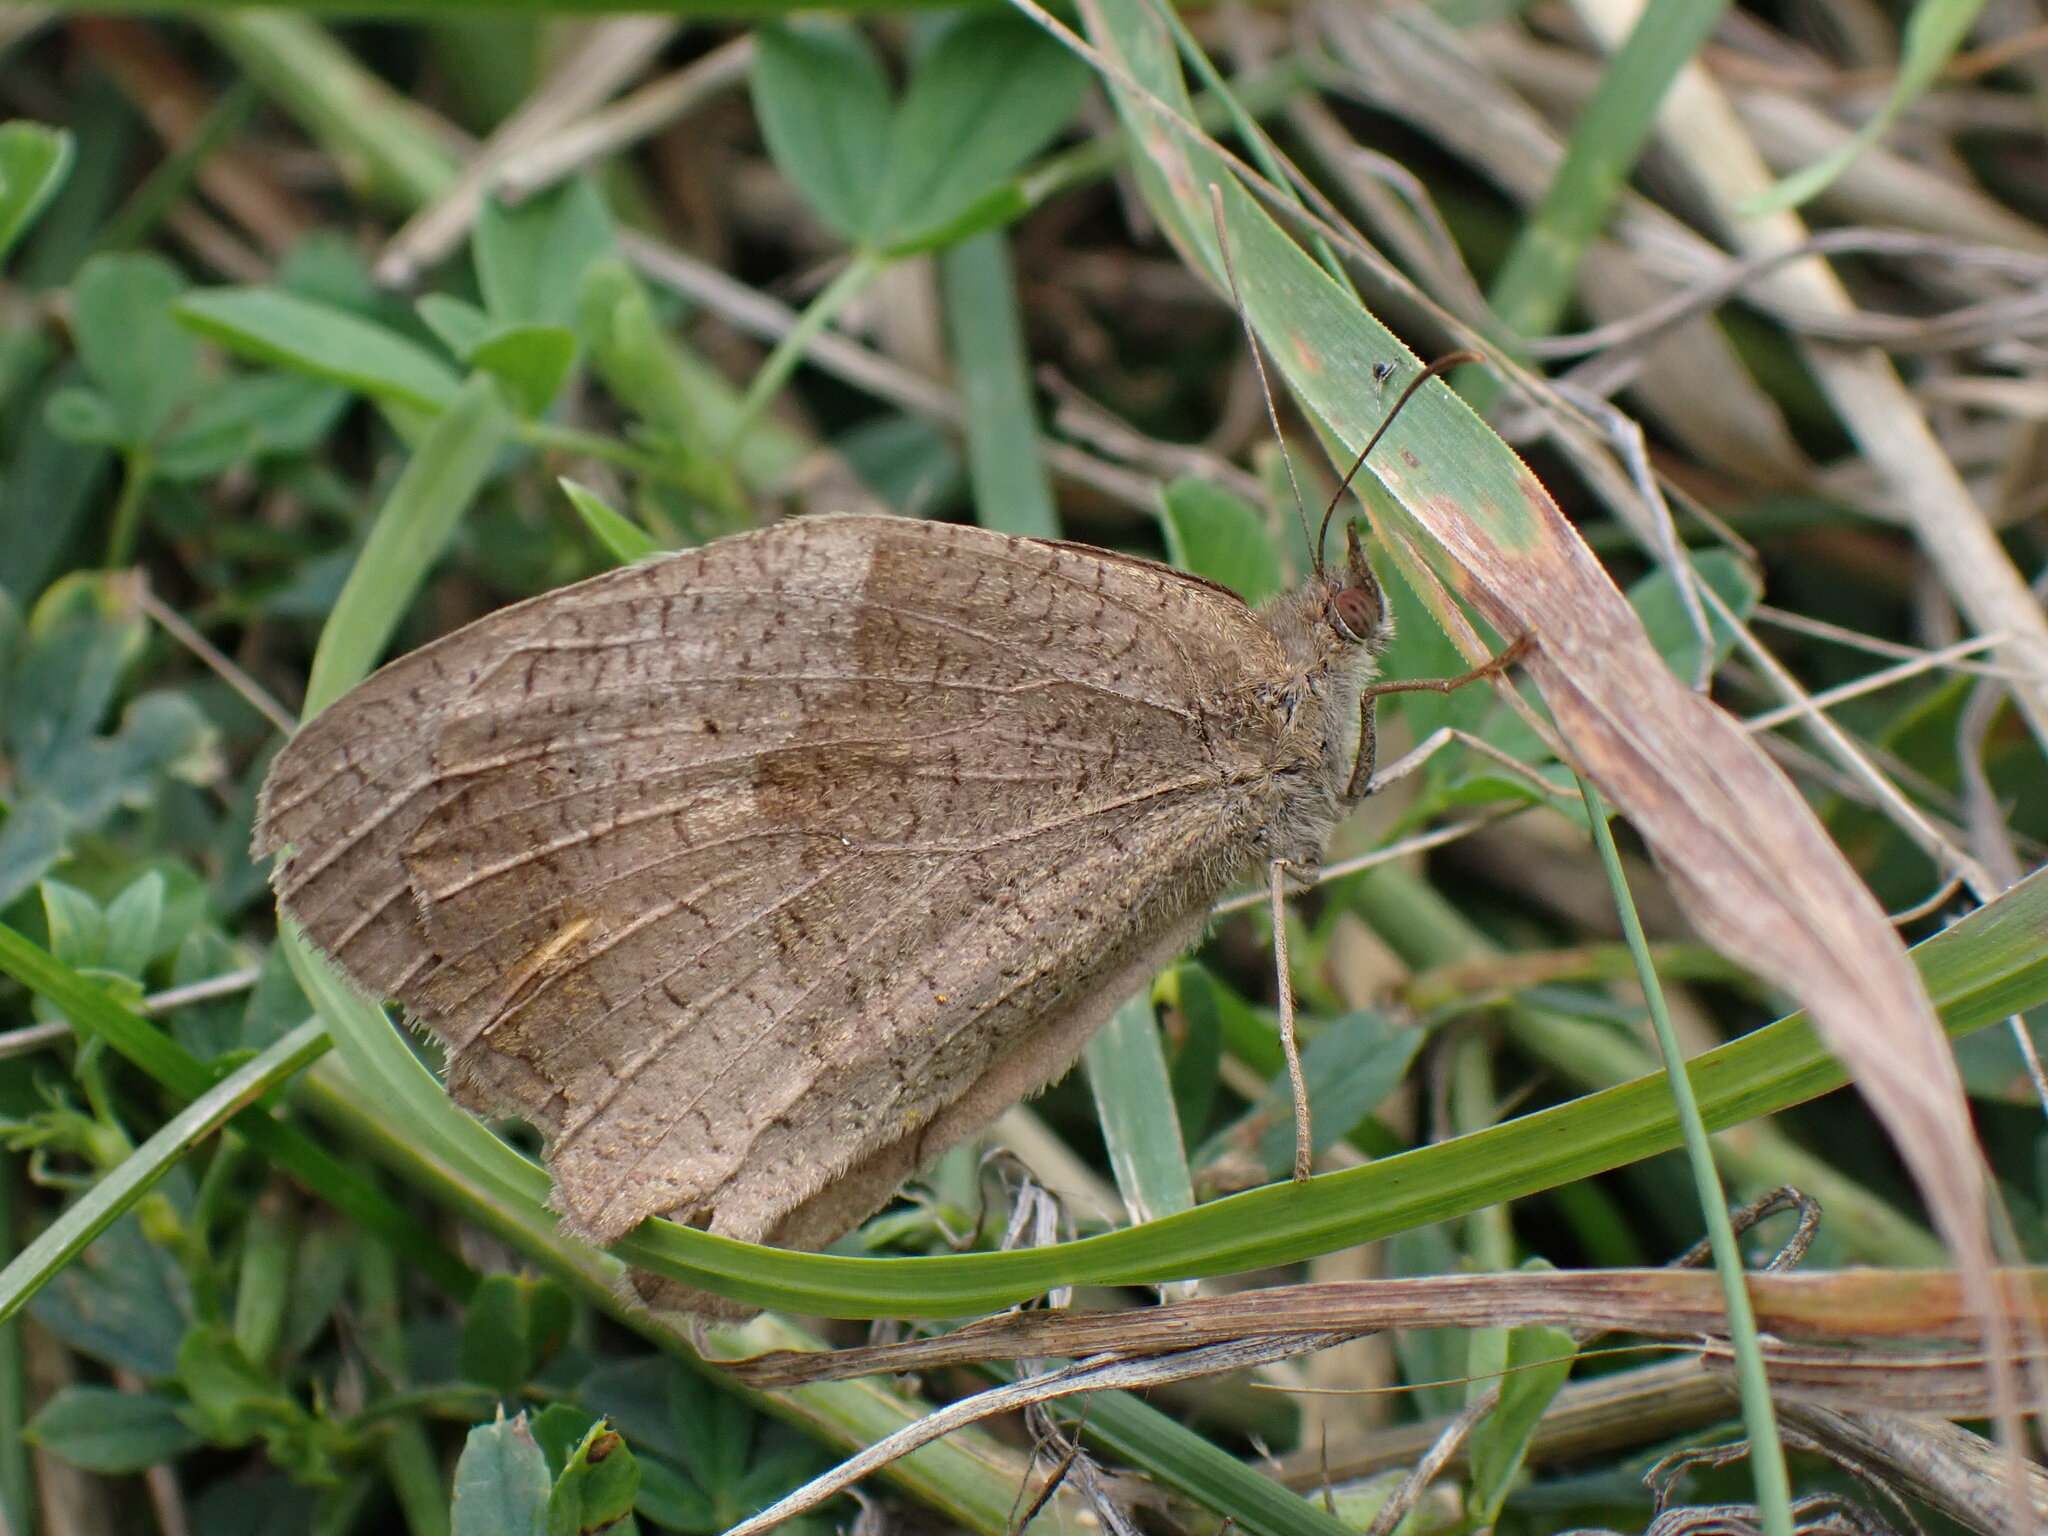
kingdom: Animalia
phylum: Arthropoda
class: Insecta
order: Lepidoptera
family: Nymphalidae
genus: Maniola
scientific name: Maniola jurtina
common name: Meadow brown
